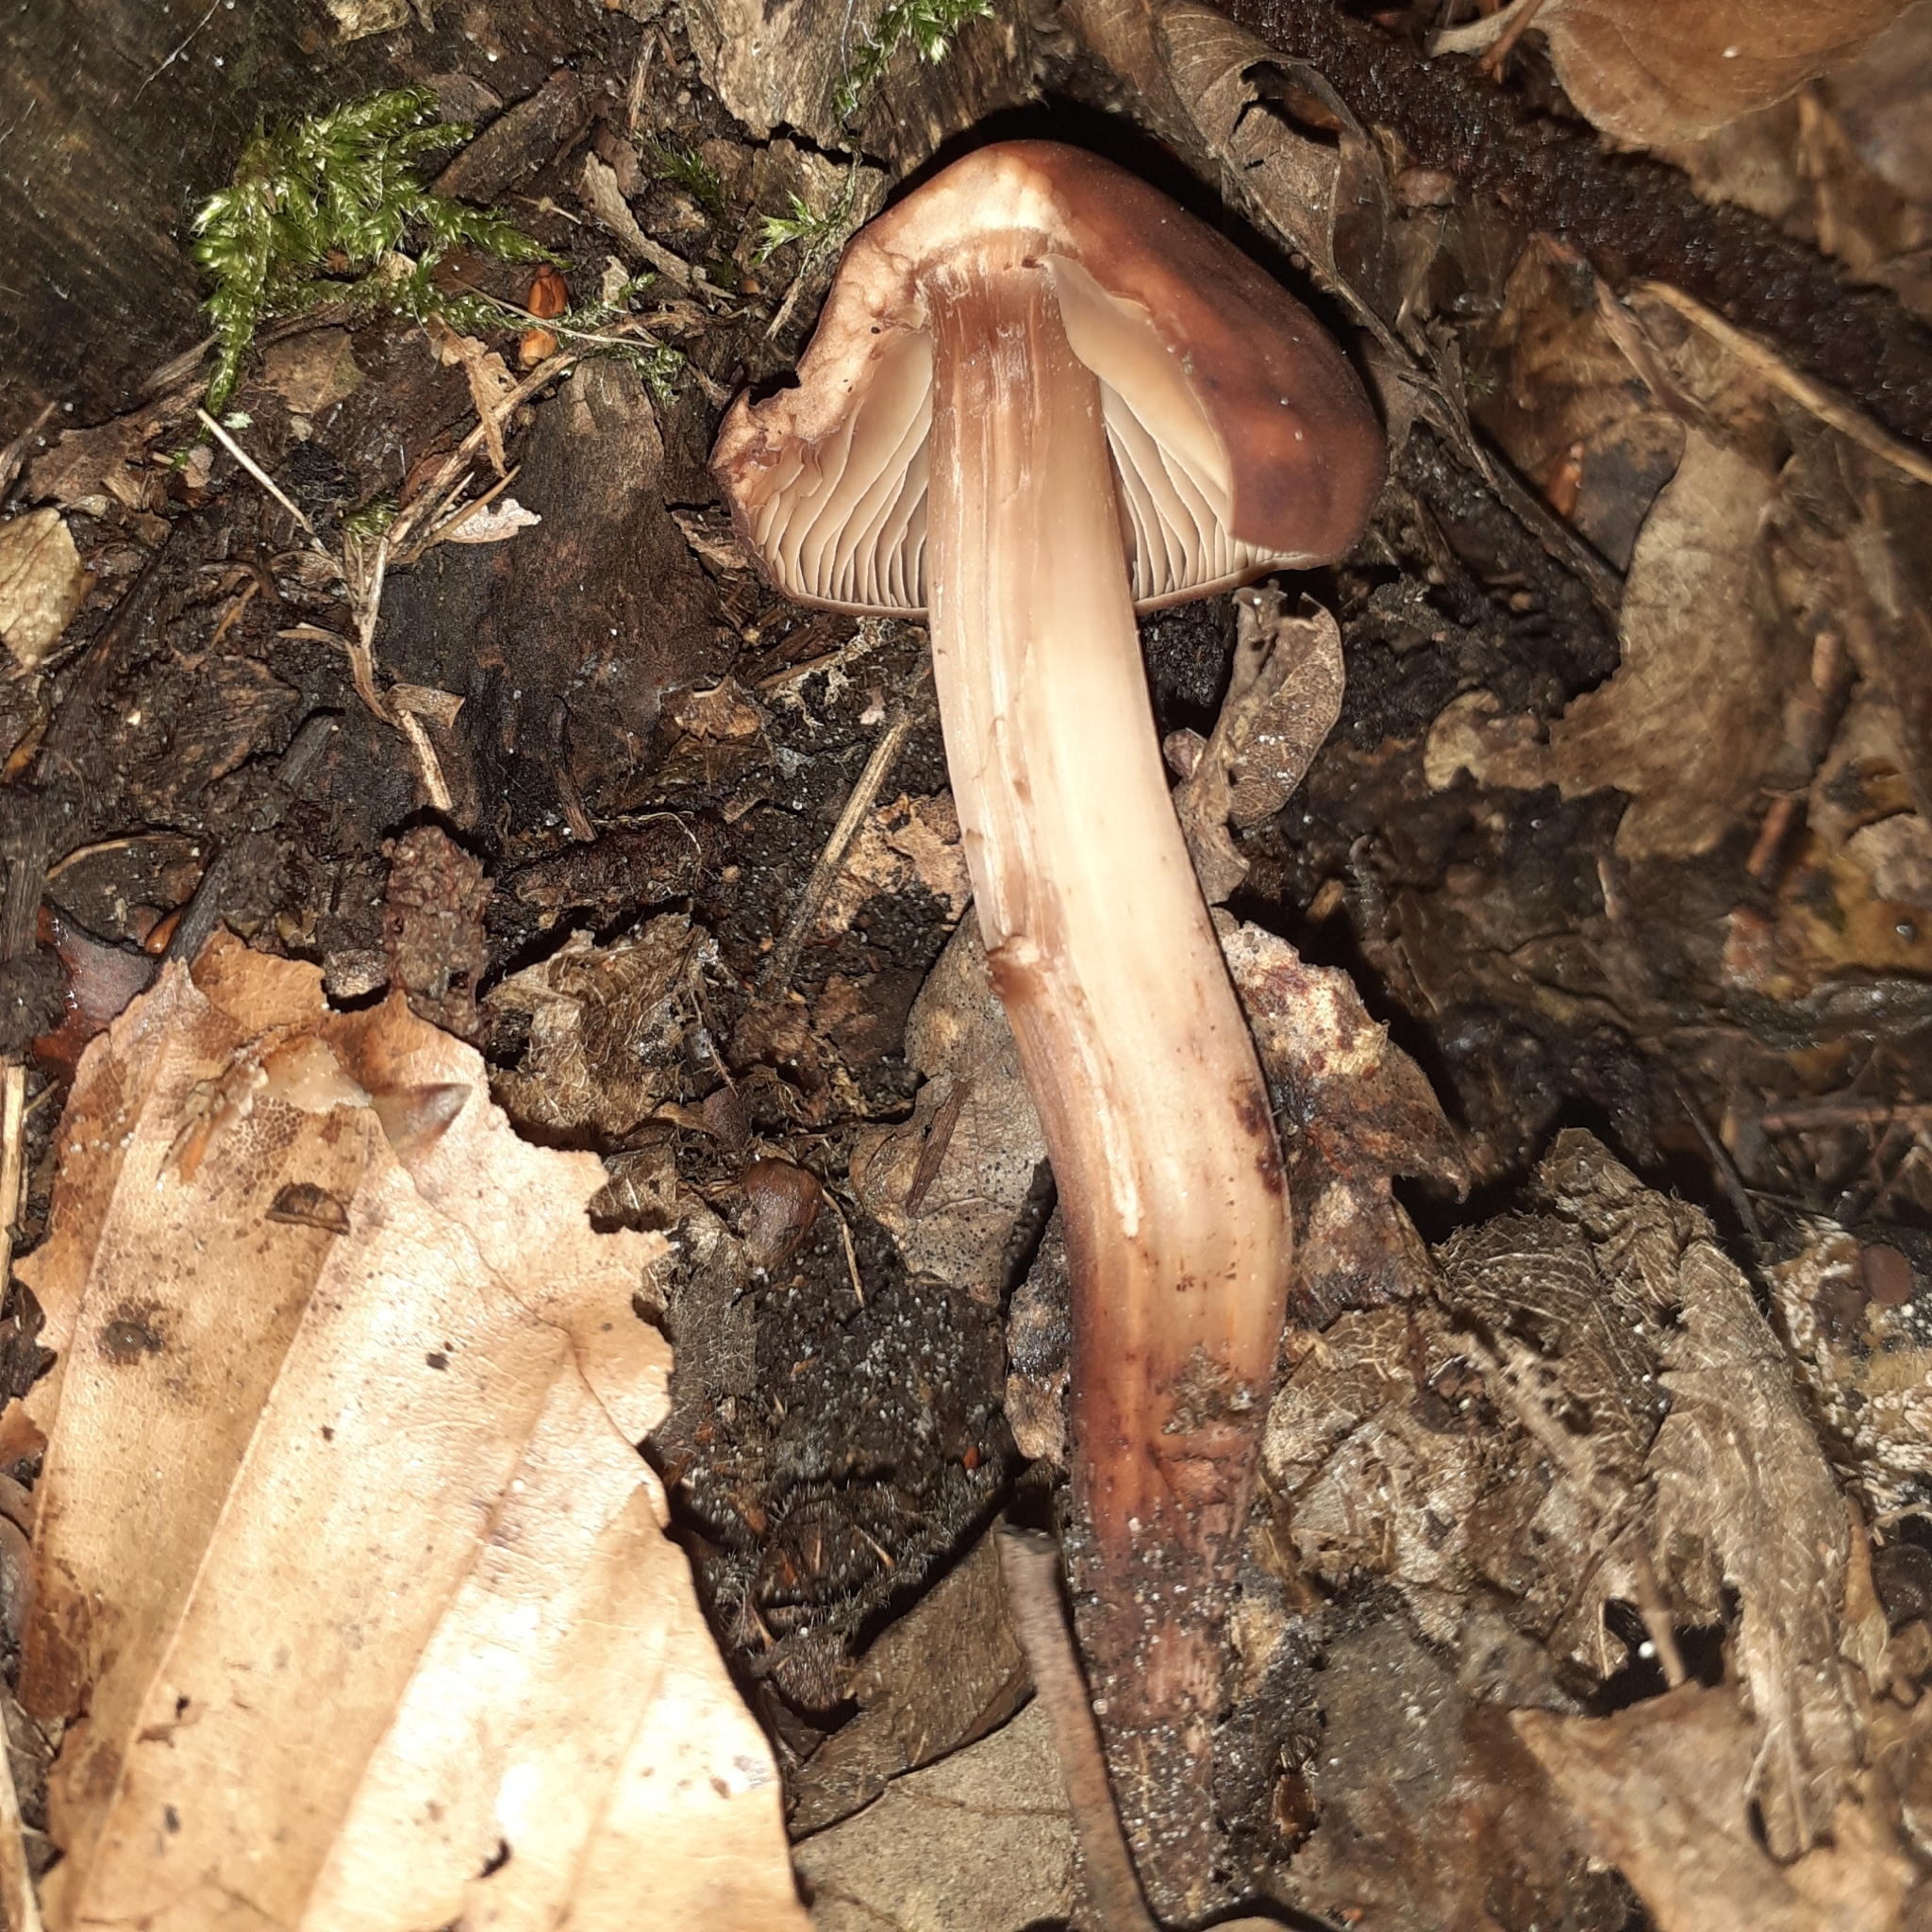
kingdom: Fungi
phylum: Basidiomycota
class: Agaricomycetes
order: Agaricales
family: Omphalotaceae
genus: Gymnopus
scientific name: Gymnopus fusipes
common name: Spindle shank
